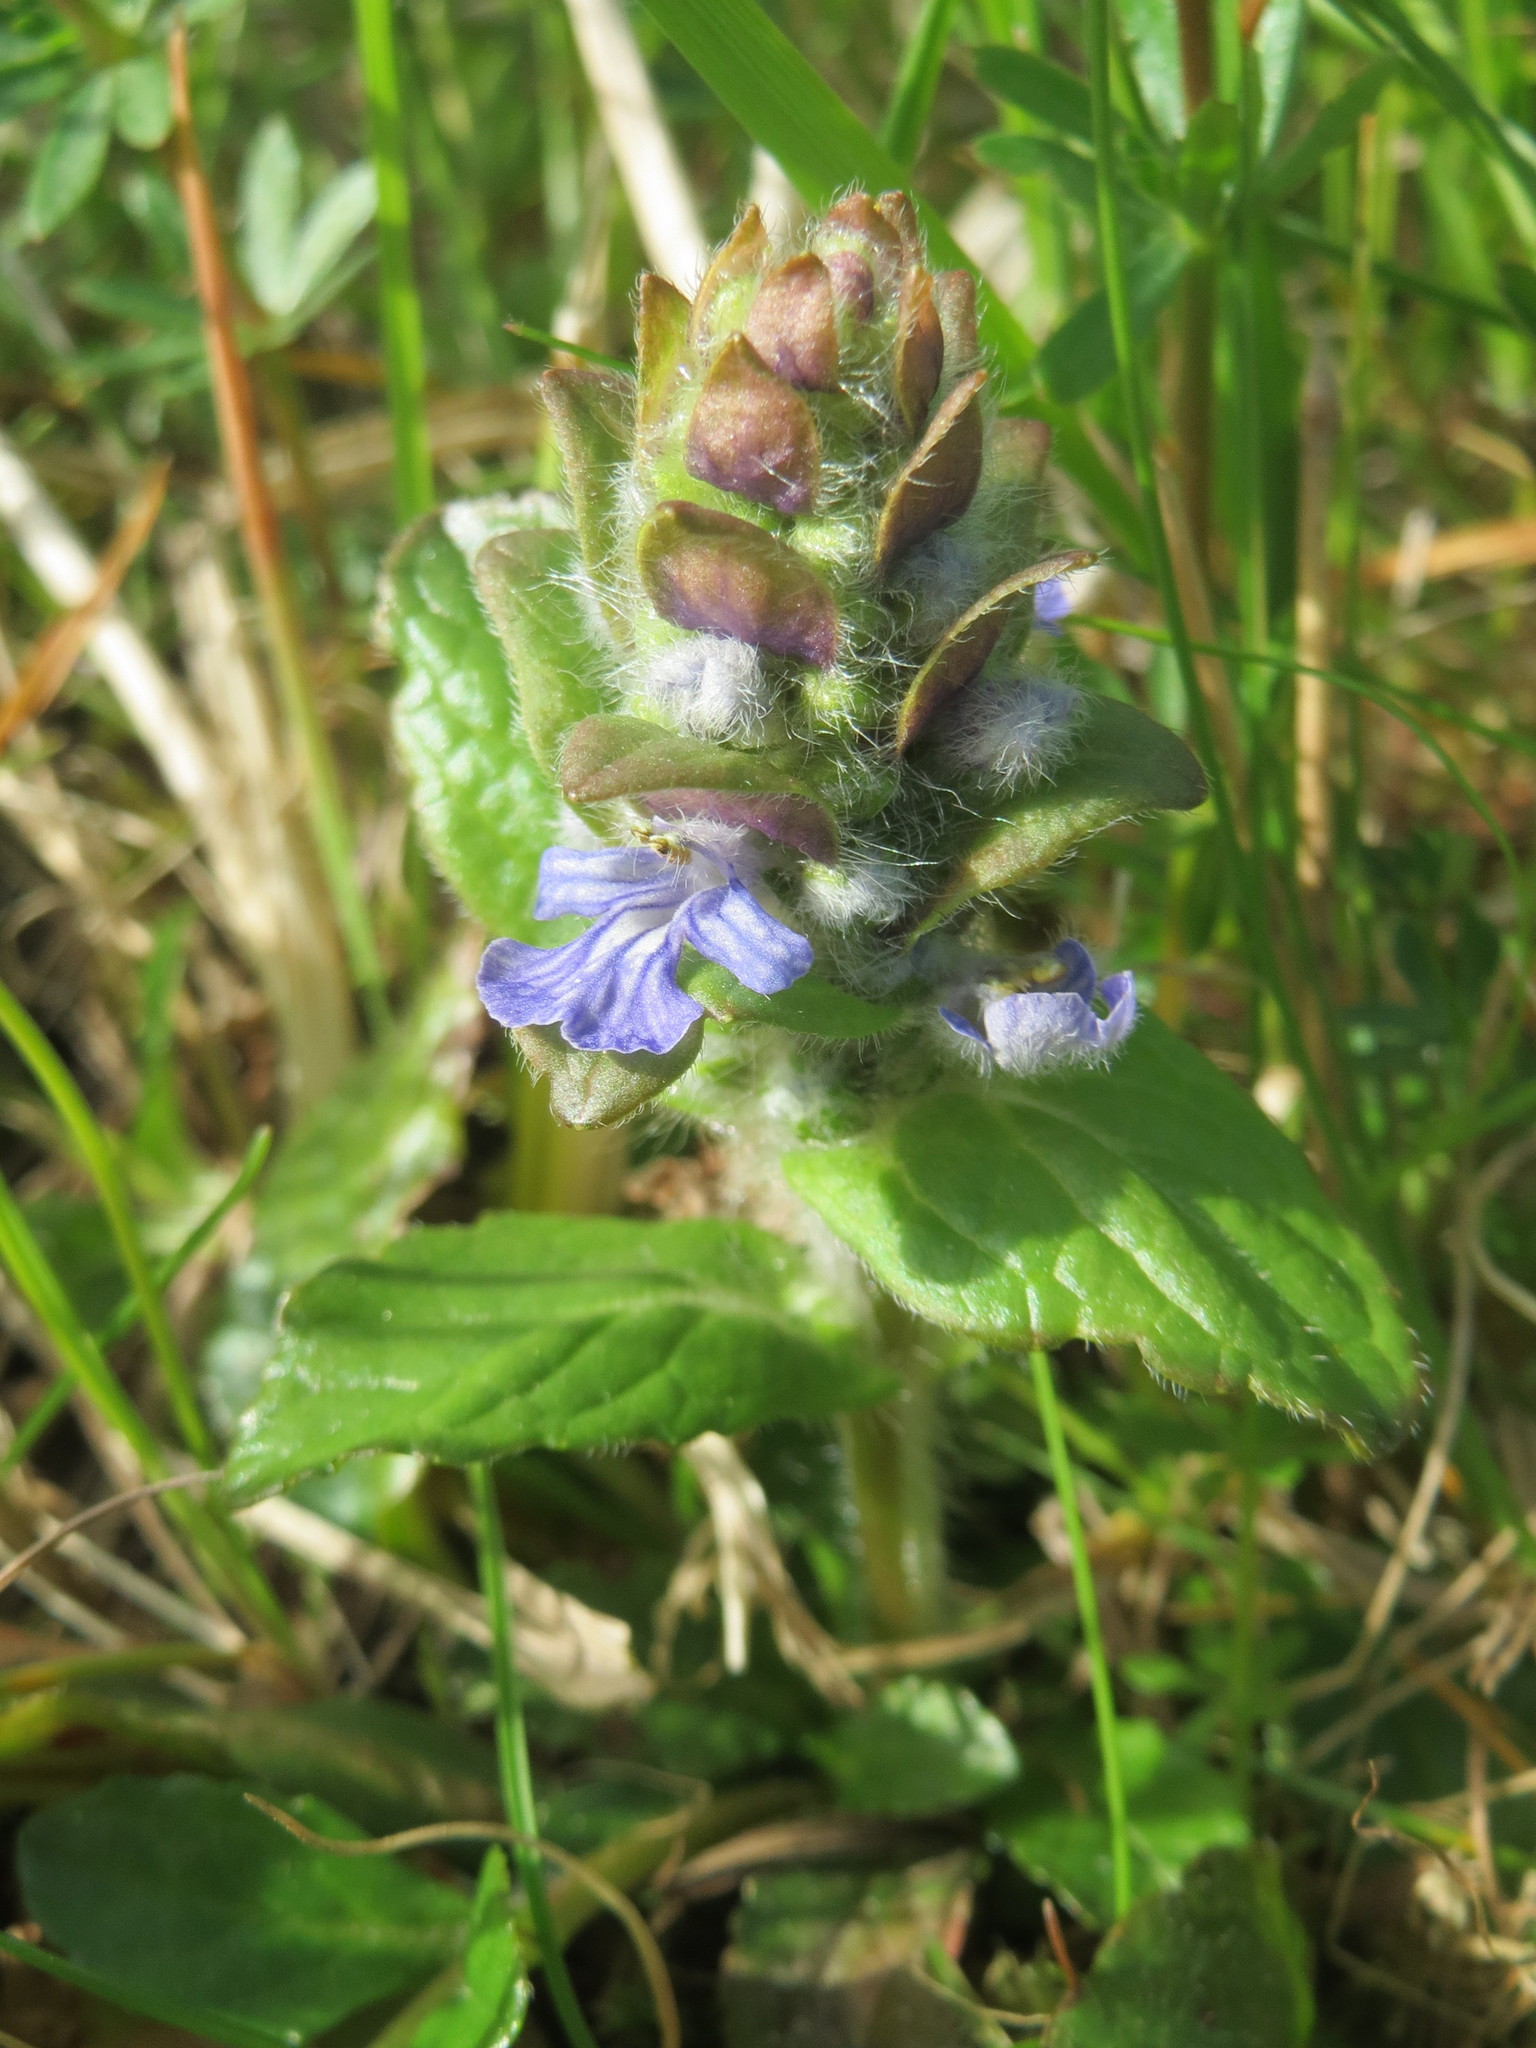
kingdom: Plantae
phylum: Tracheophyta
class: Magnoliopsida
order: Lamiales
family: Lamiaceae
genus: Ajuga
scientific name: Ajuga reptans
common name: Bugle
